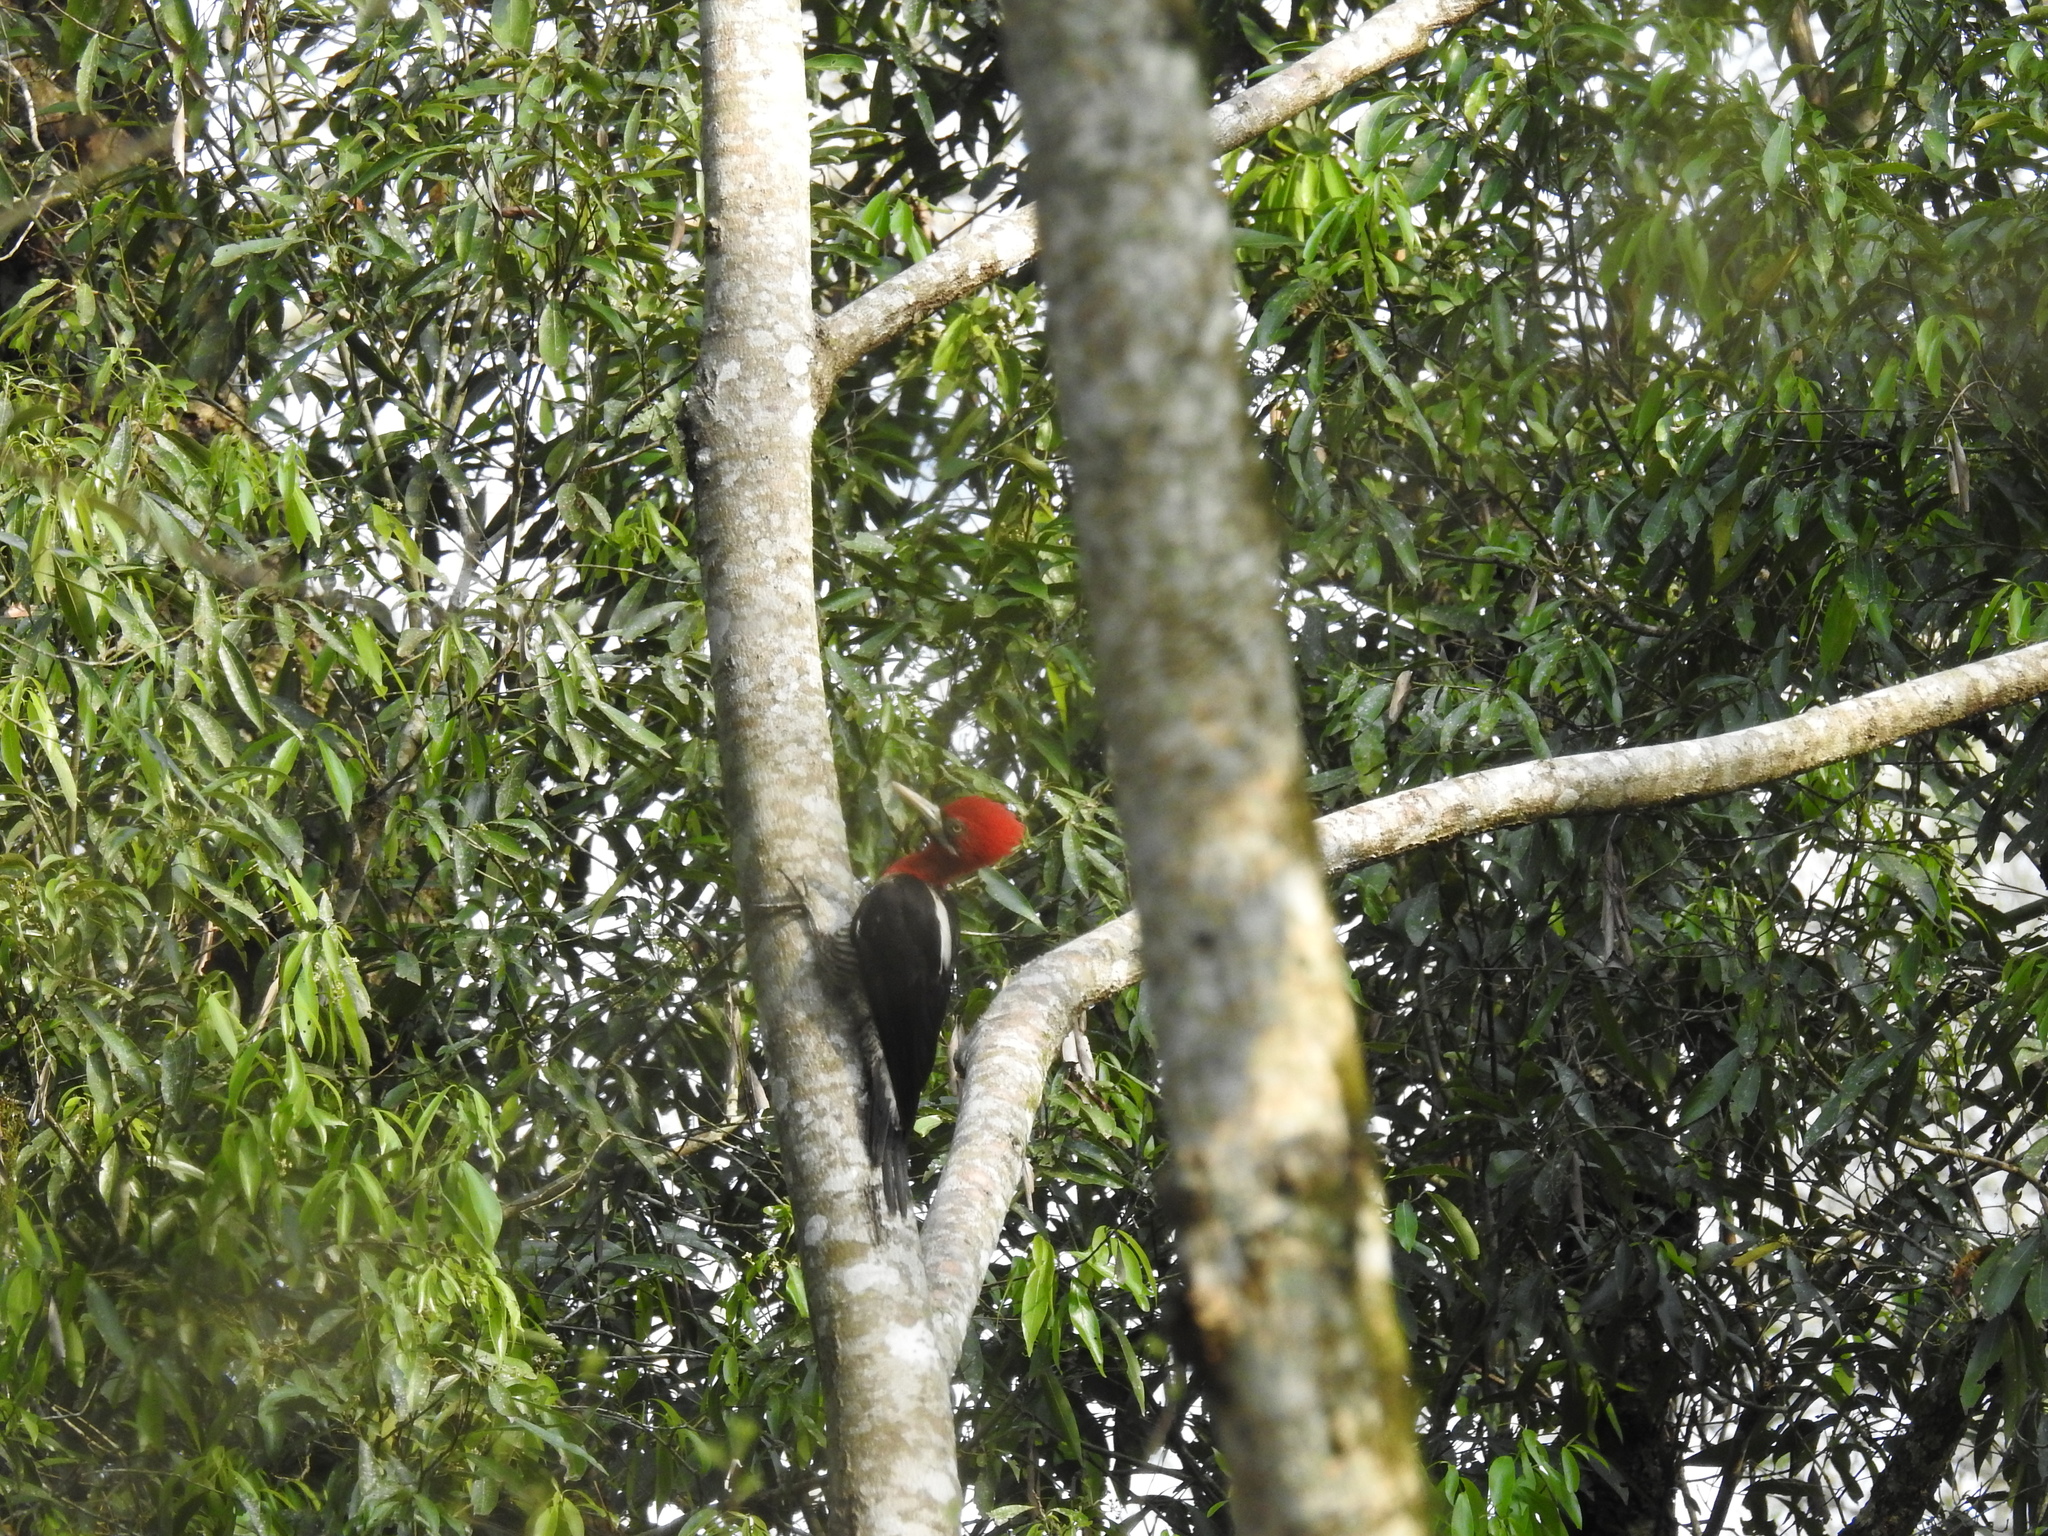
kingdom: Animalia
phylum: Chordata
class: Aves
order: Piciformes
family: Picidae
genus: Campephilus
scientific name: Campephilus robustus
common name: Robust woodpecker
